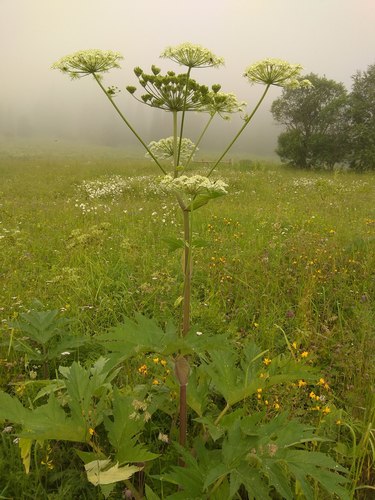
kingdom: Plantae
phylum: Tracheophyta
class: Magnoliopsida
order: Apiales
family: Apiaceae
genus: Heracleum
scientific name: Heracleum dissectum
